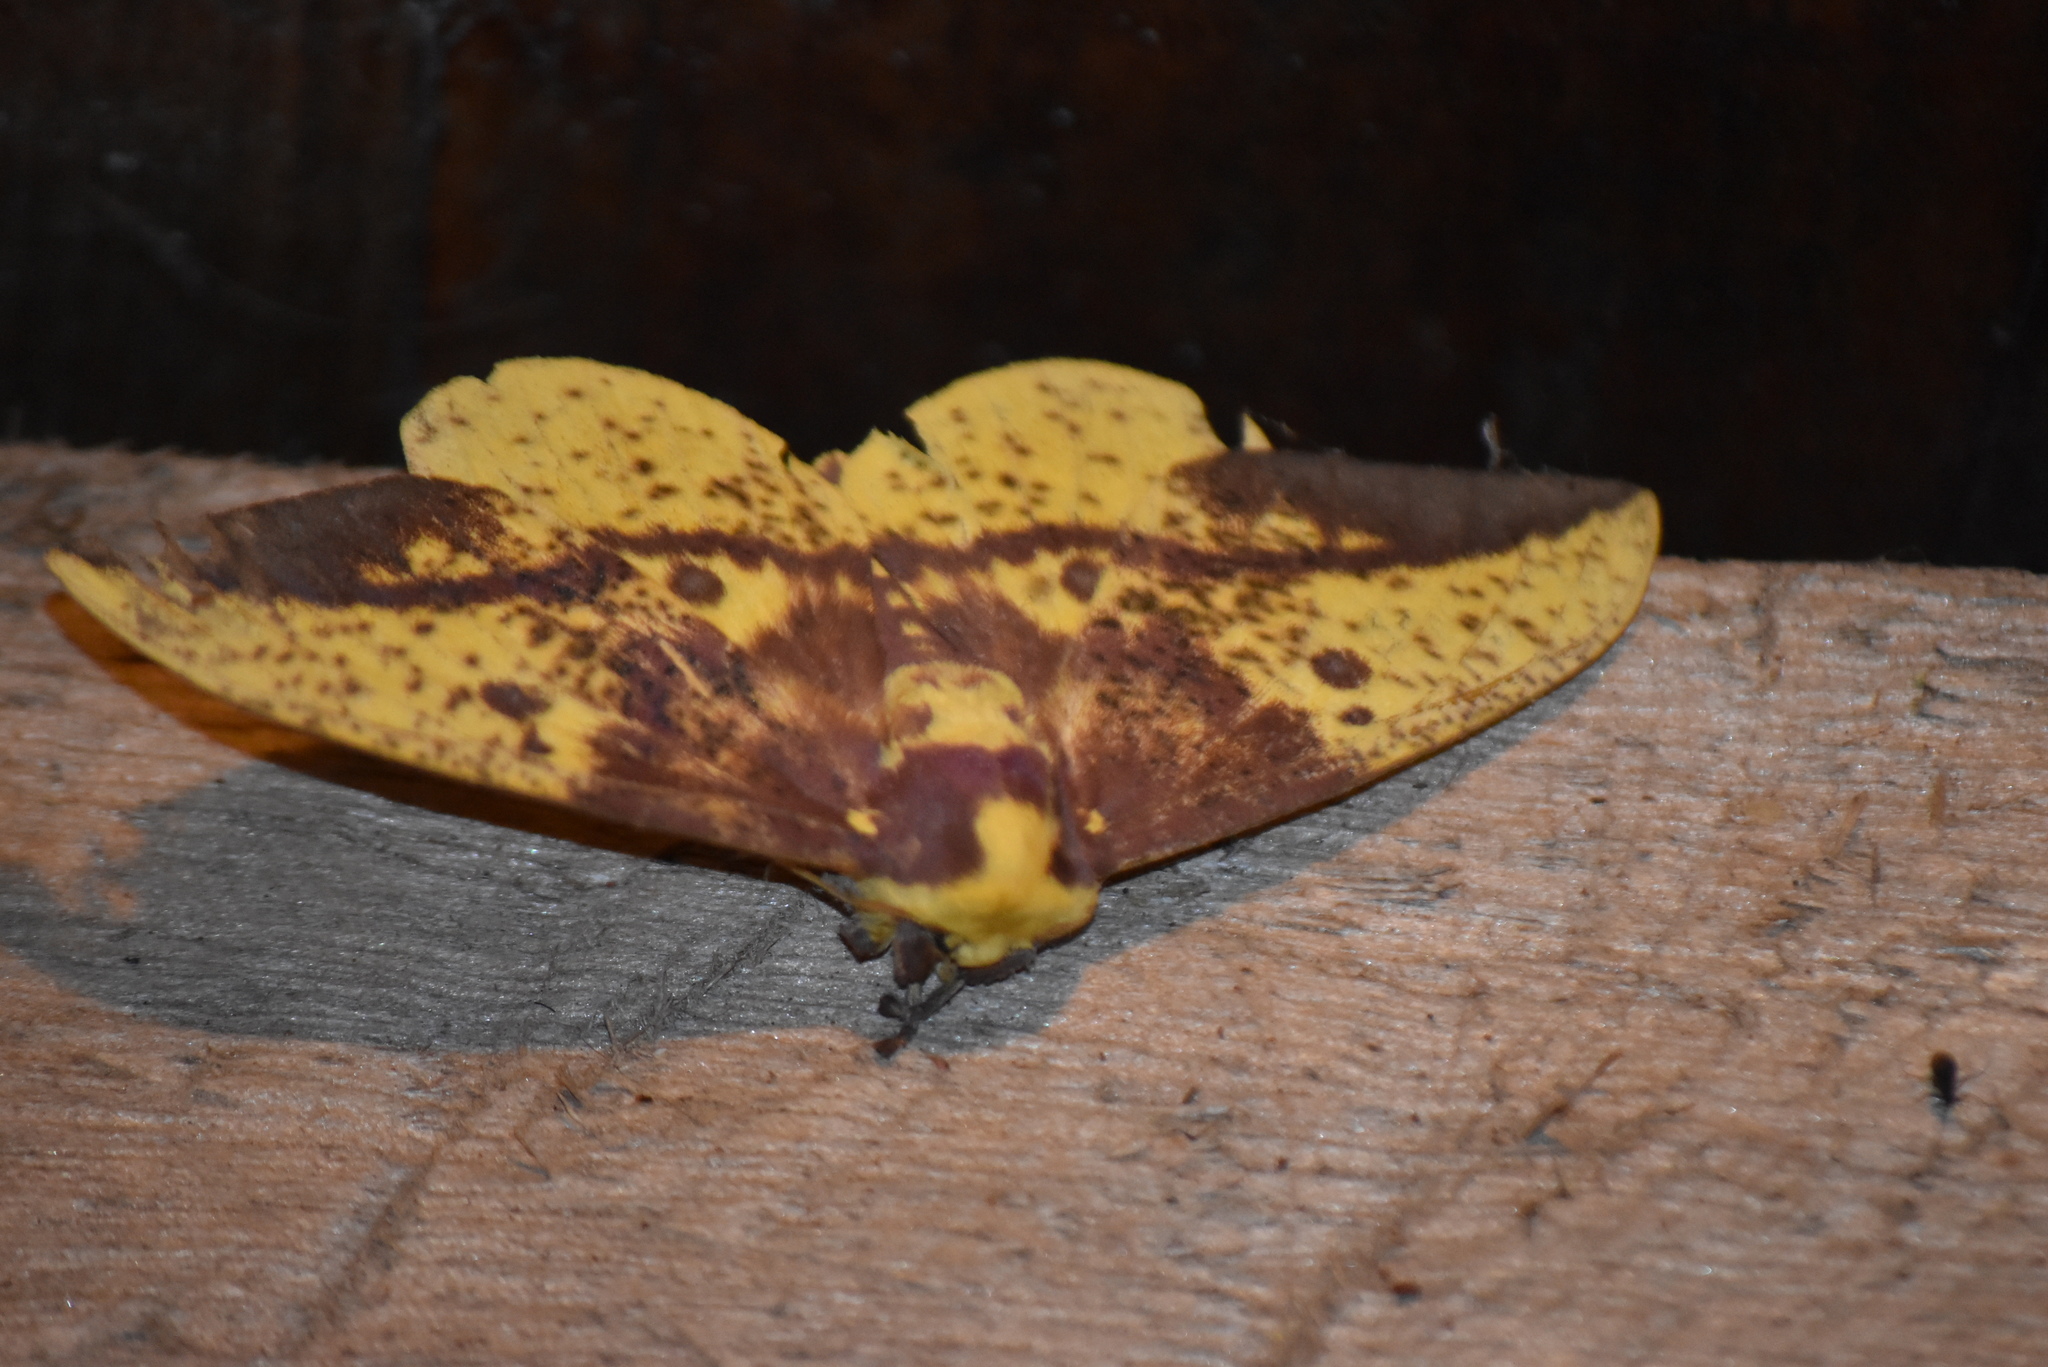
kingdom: Animalia
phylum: Arthropoda
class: Insecta
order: Lepidoptera
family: Saturniidae
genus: Eacles
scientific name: Eacles imperialis
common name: Imperial moth
